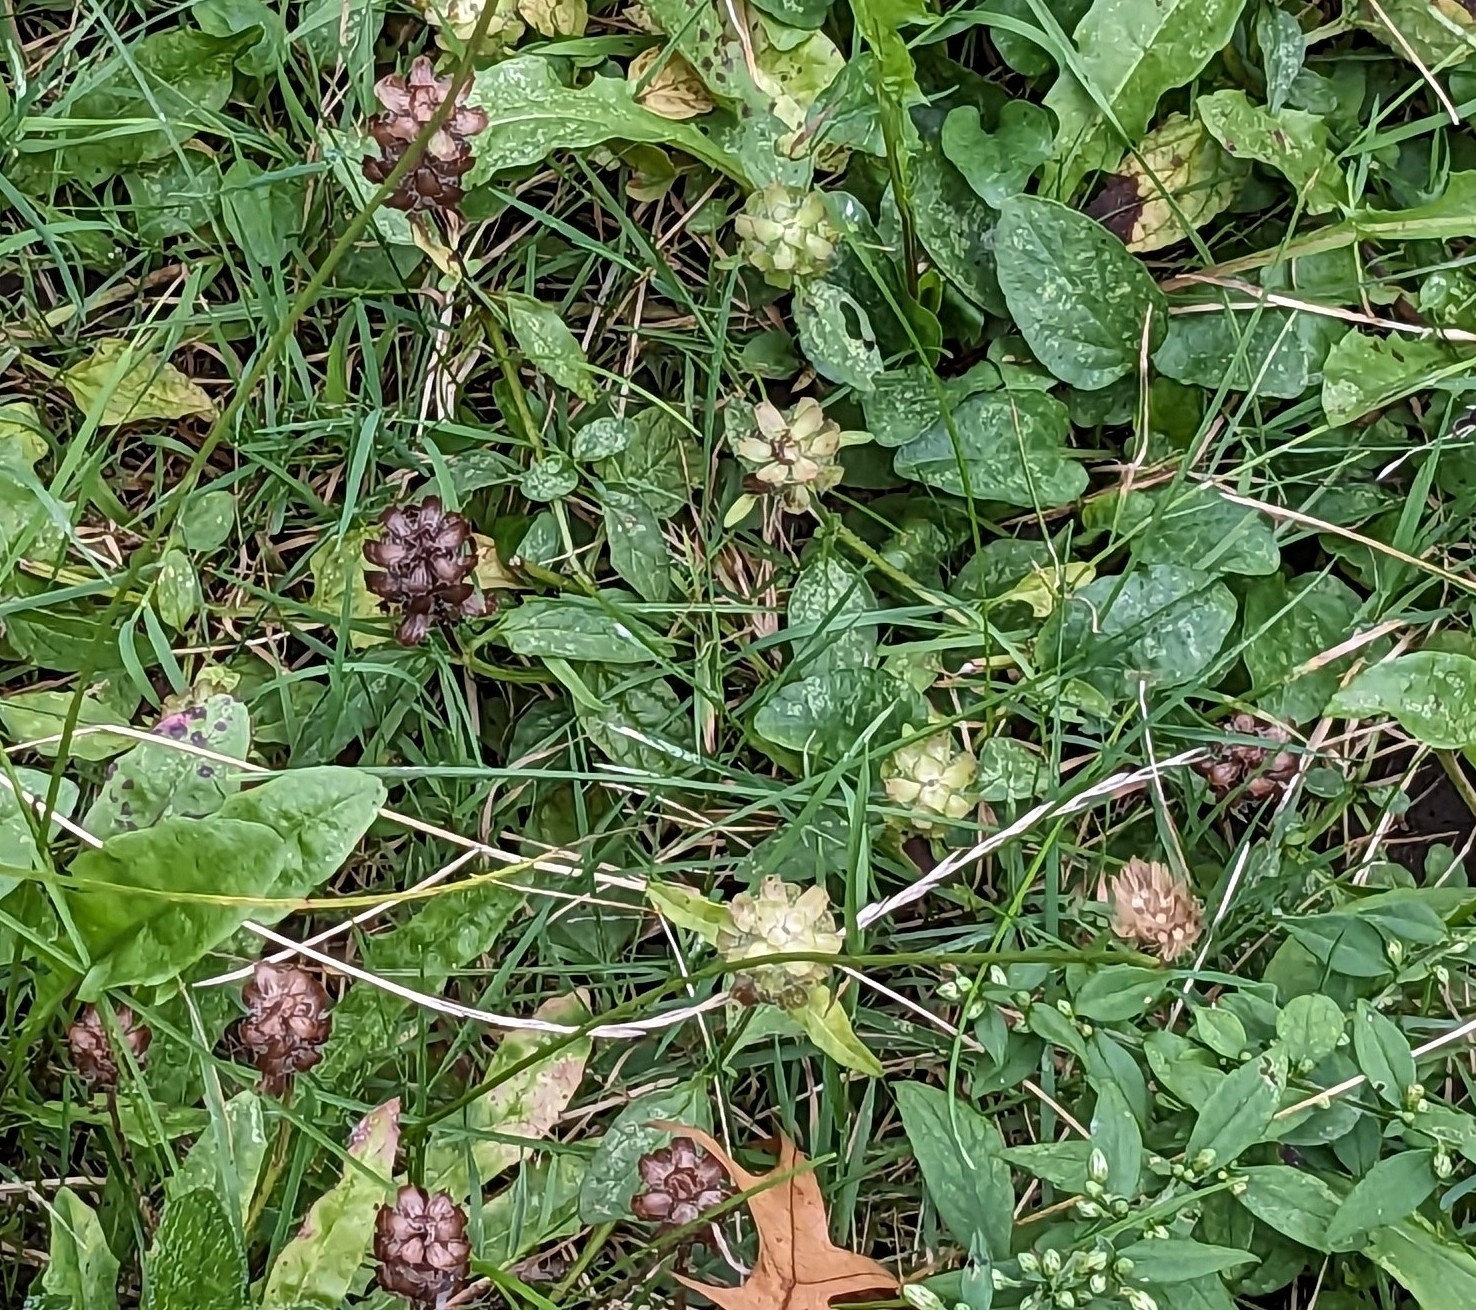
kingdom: Plantae
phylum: Tracheophyta
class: Magnoliopsida
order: Lamiales
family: Lamiaceae
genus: Prunella
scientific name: Prunella vulgaris
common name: Heal-all
